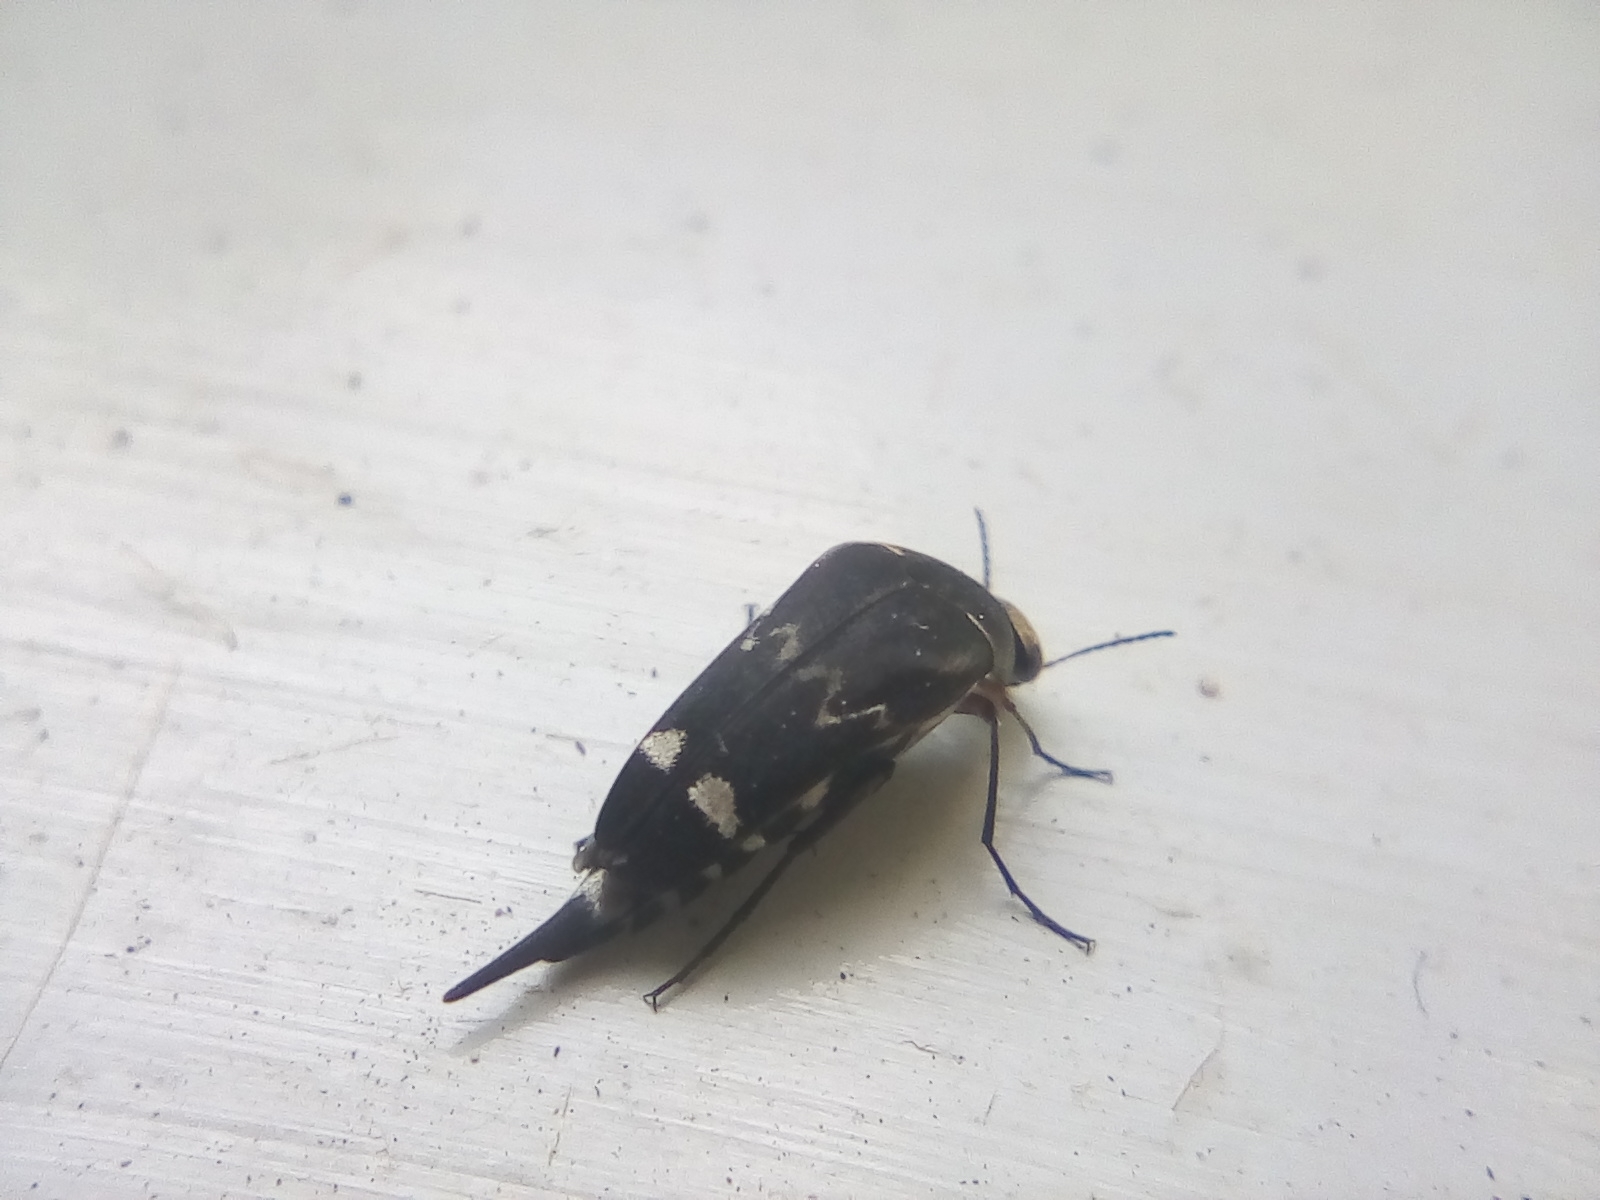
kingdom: Animalia
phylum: Arthropoda
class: Insecta
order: Coleoptera
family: Mordellidae
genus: Mordella
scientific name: Mordella
